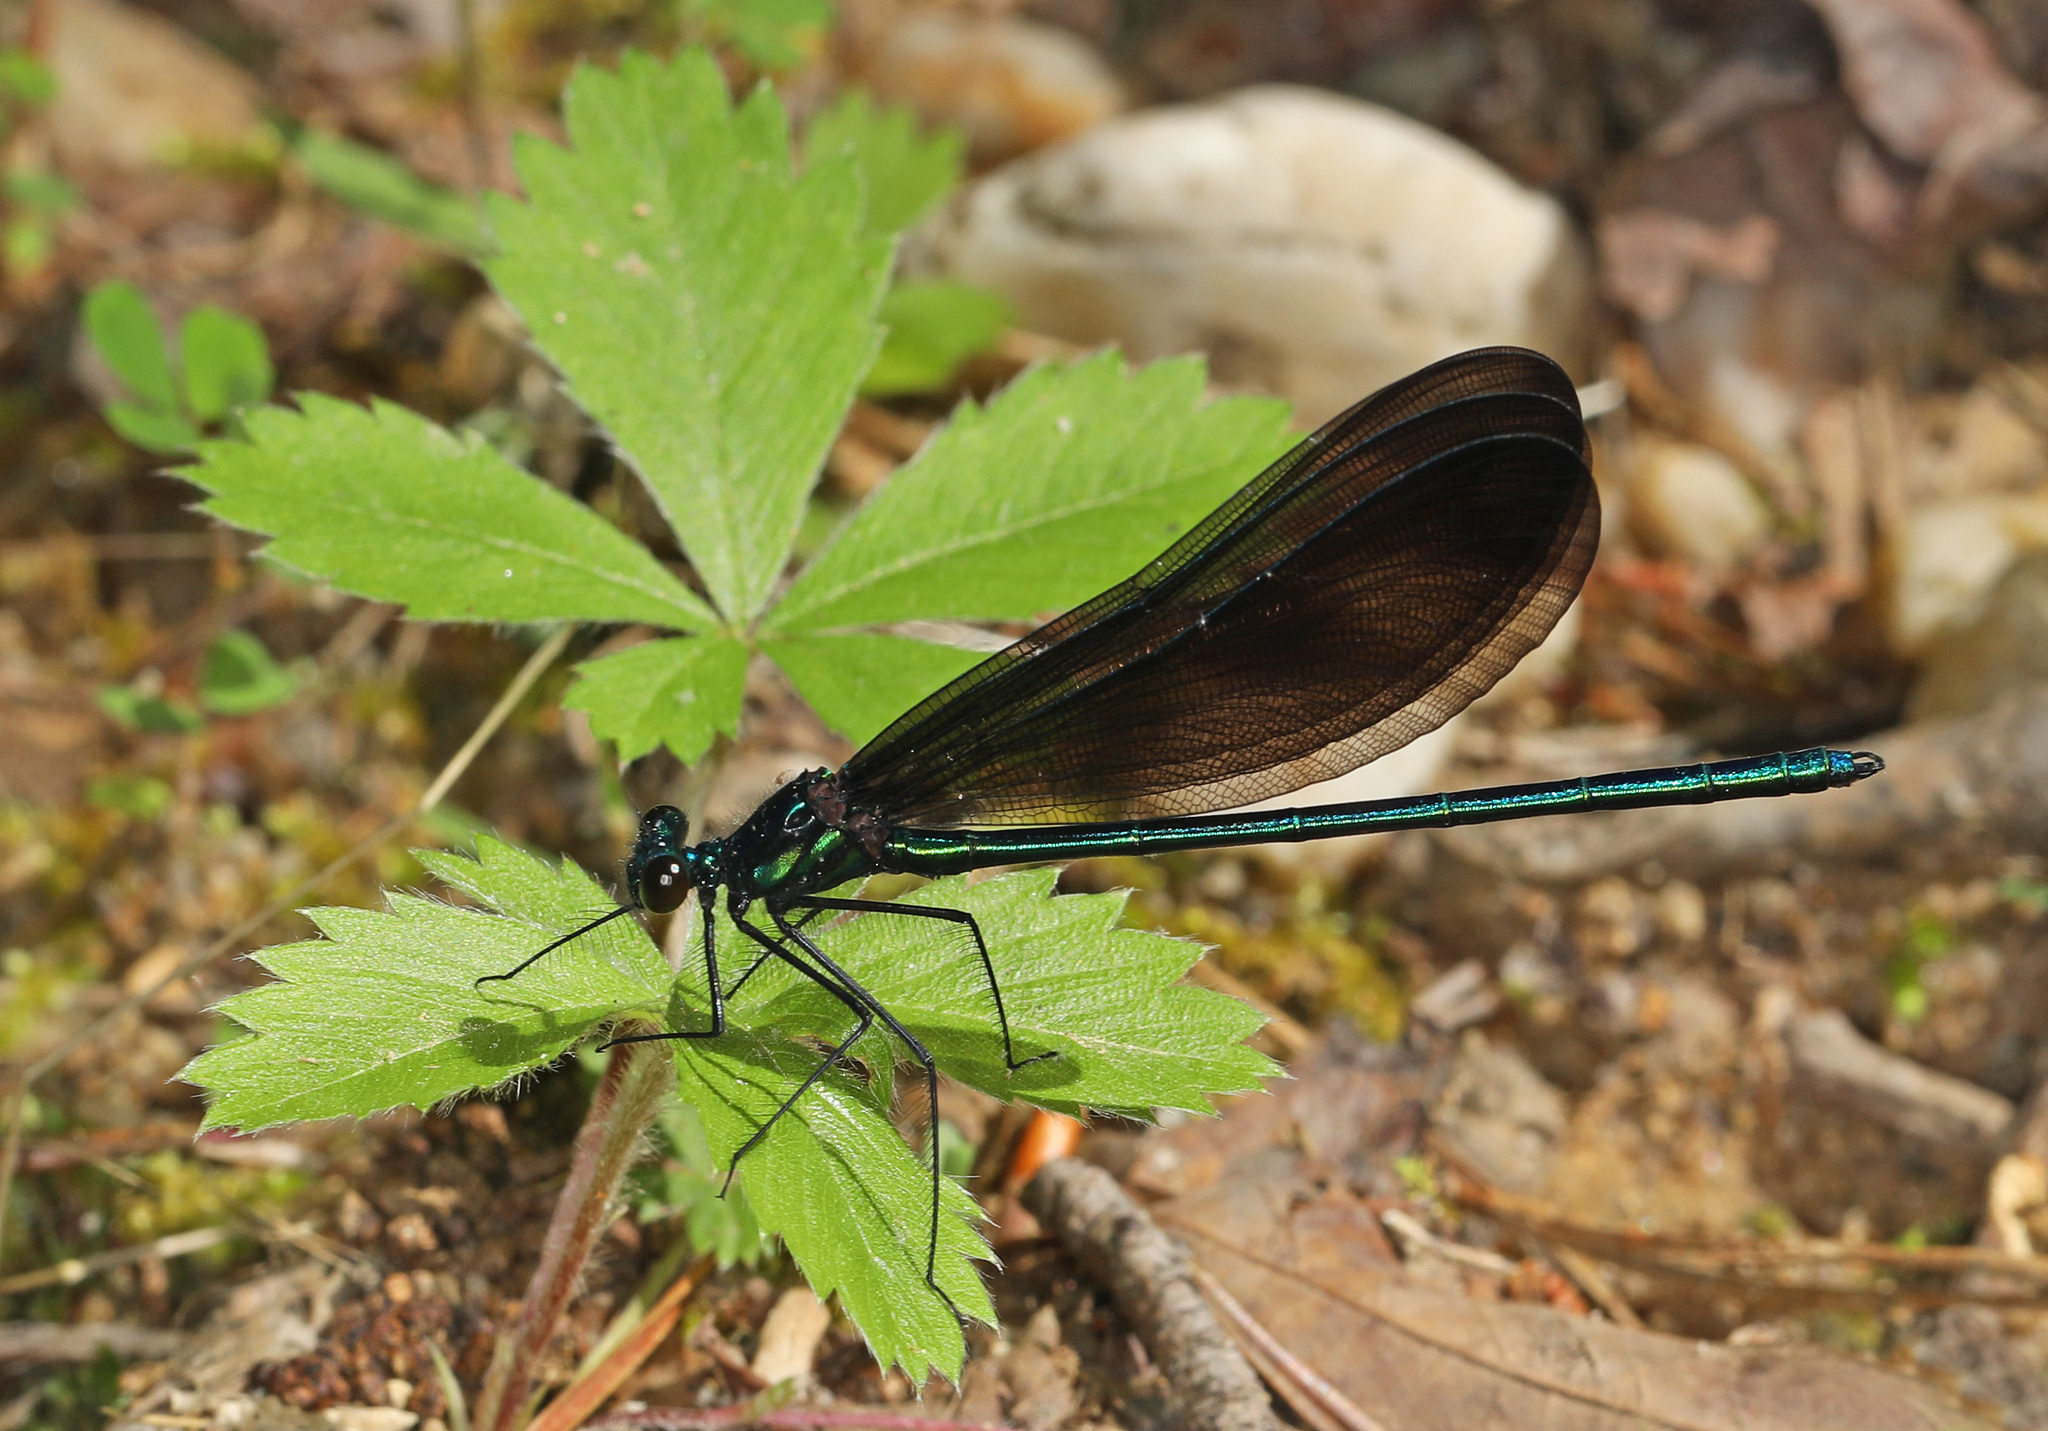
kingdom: Animalia
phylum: Arthropoda
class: Insecta
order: Odonata
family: Calopterygidae
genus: Calopteryx
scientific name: Calopteryx maculata
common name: Ebony jewelwing
